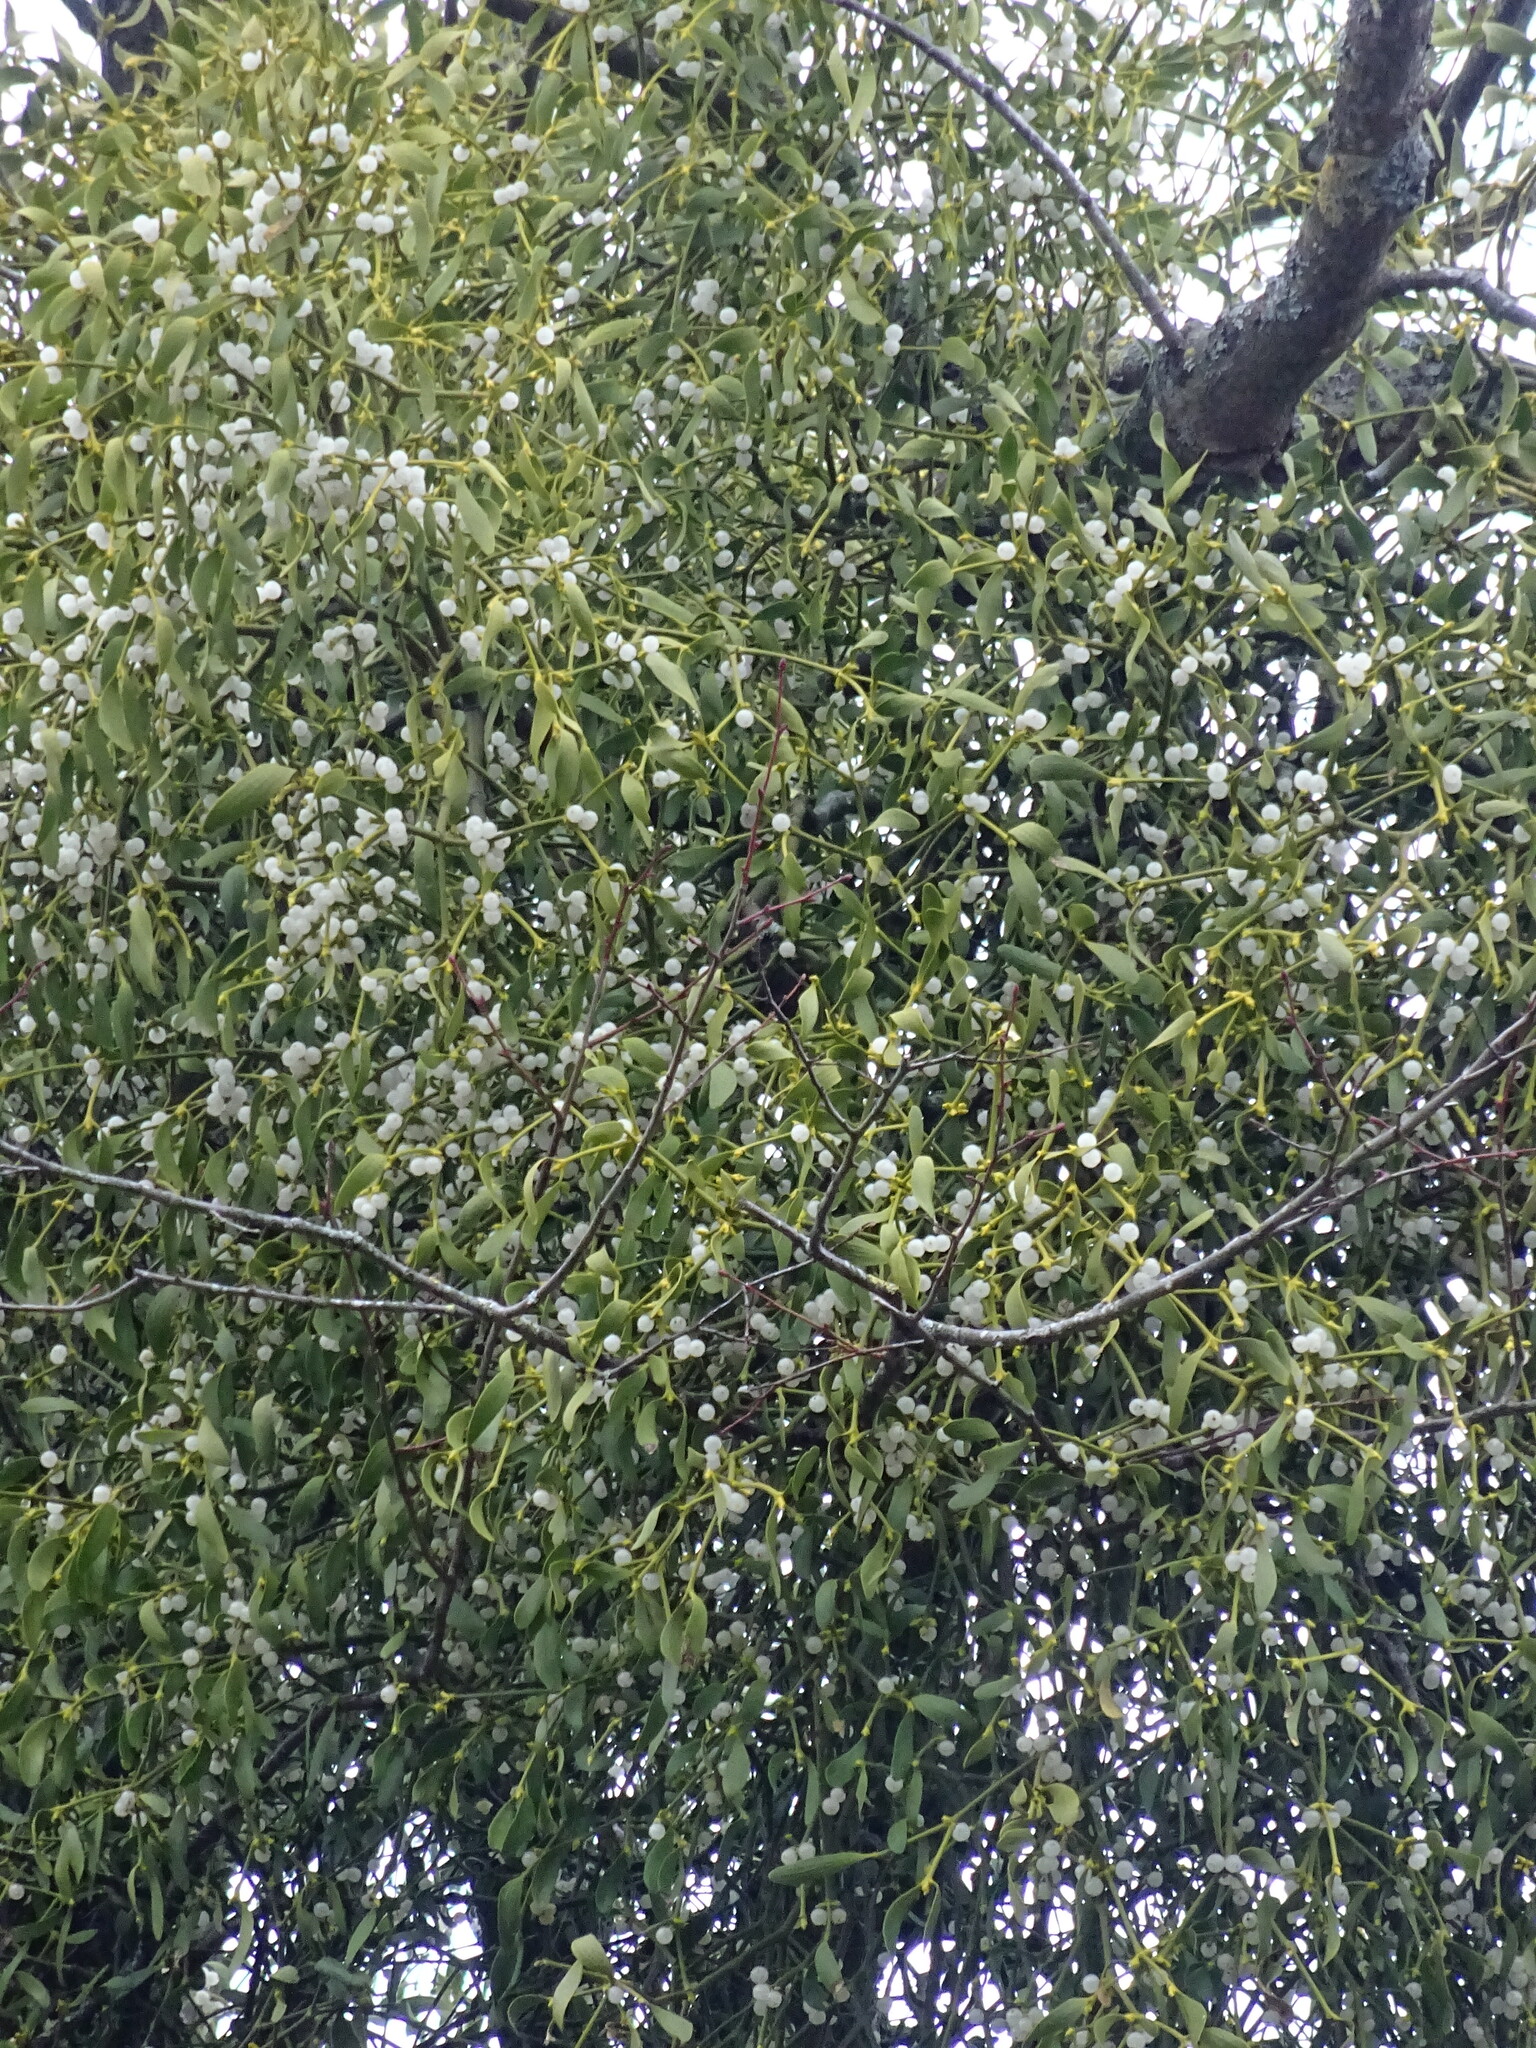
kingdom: Plantae
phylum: Tracheophyta
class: Magnoliopsida
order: Santalales
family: Viscaceae
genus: Viscum
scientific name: Viscum album
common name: Mistletoe
